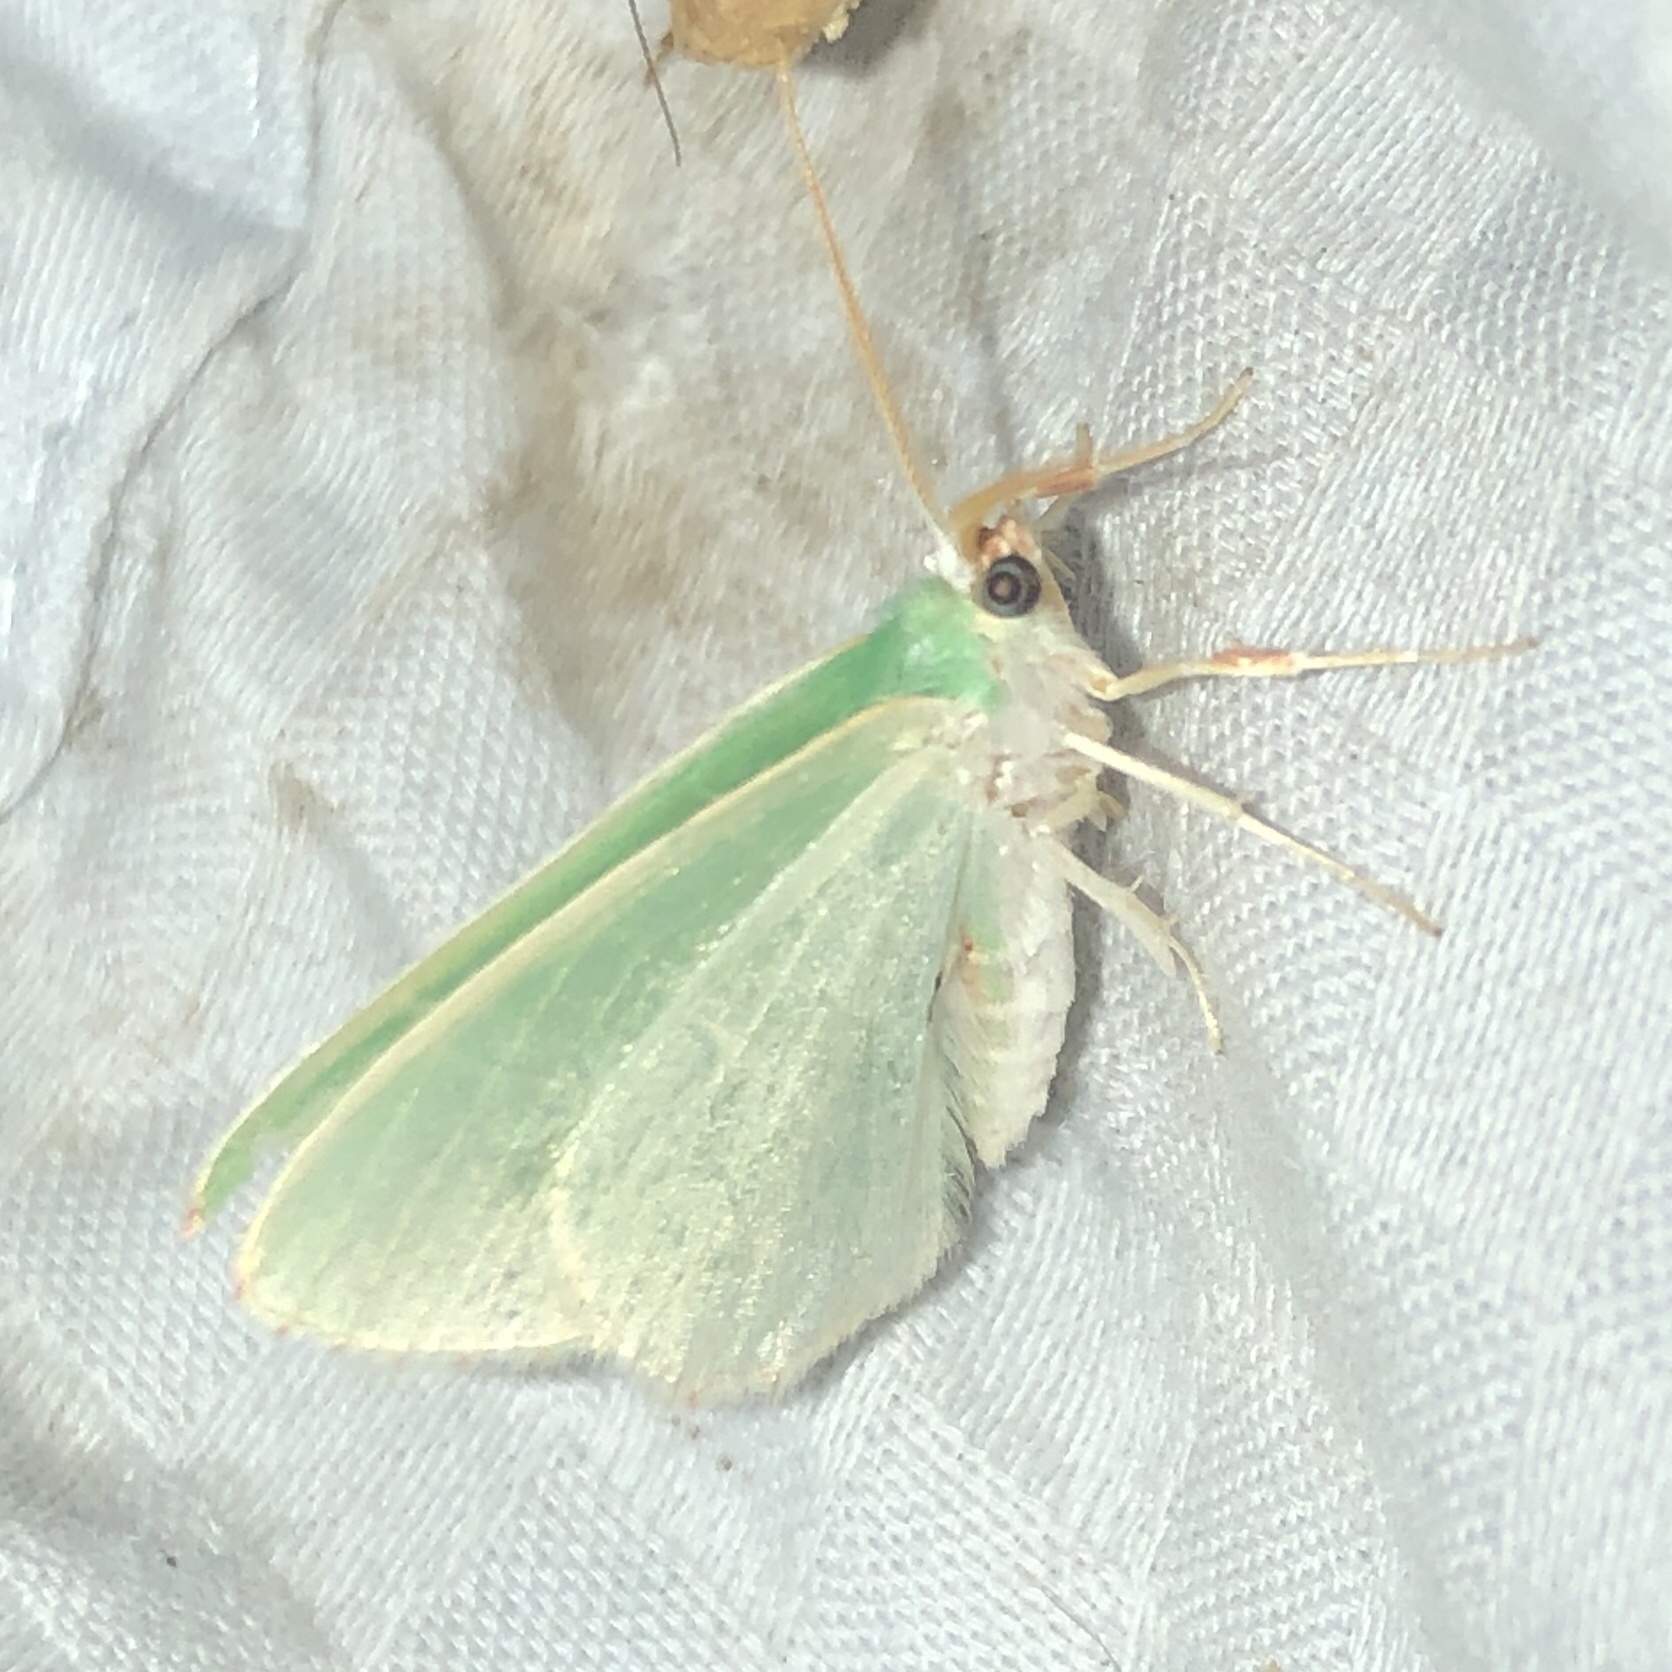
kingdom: Animalia
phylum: Arthropoda
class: Insecta
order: Lepidoptera
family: Geometridae
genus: Nemoria
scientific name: Nemoria bistriaria
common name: Red-fringed emerald
